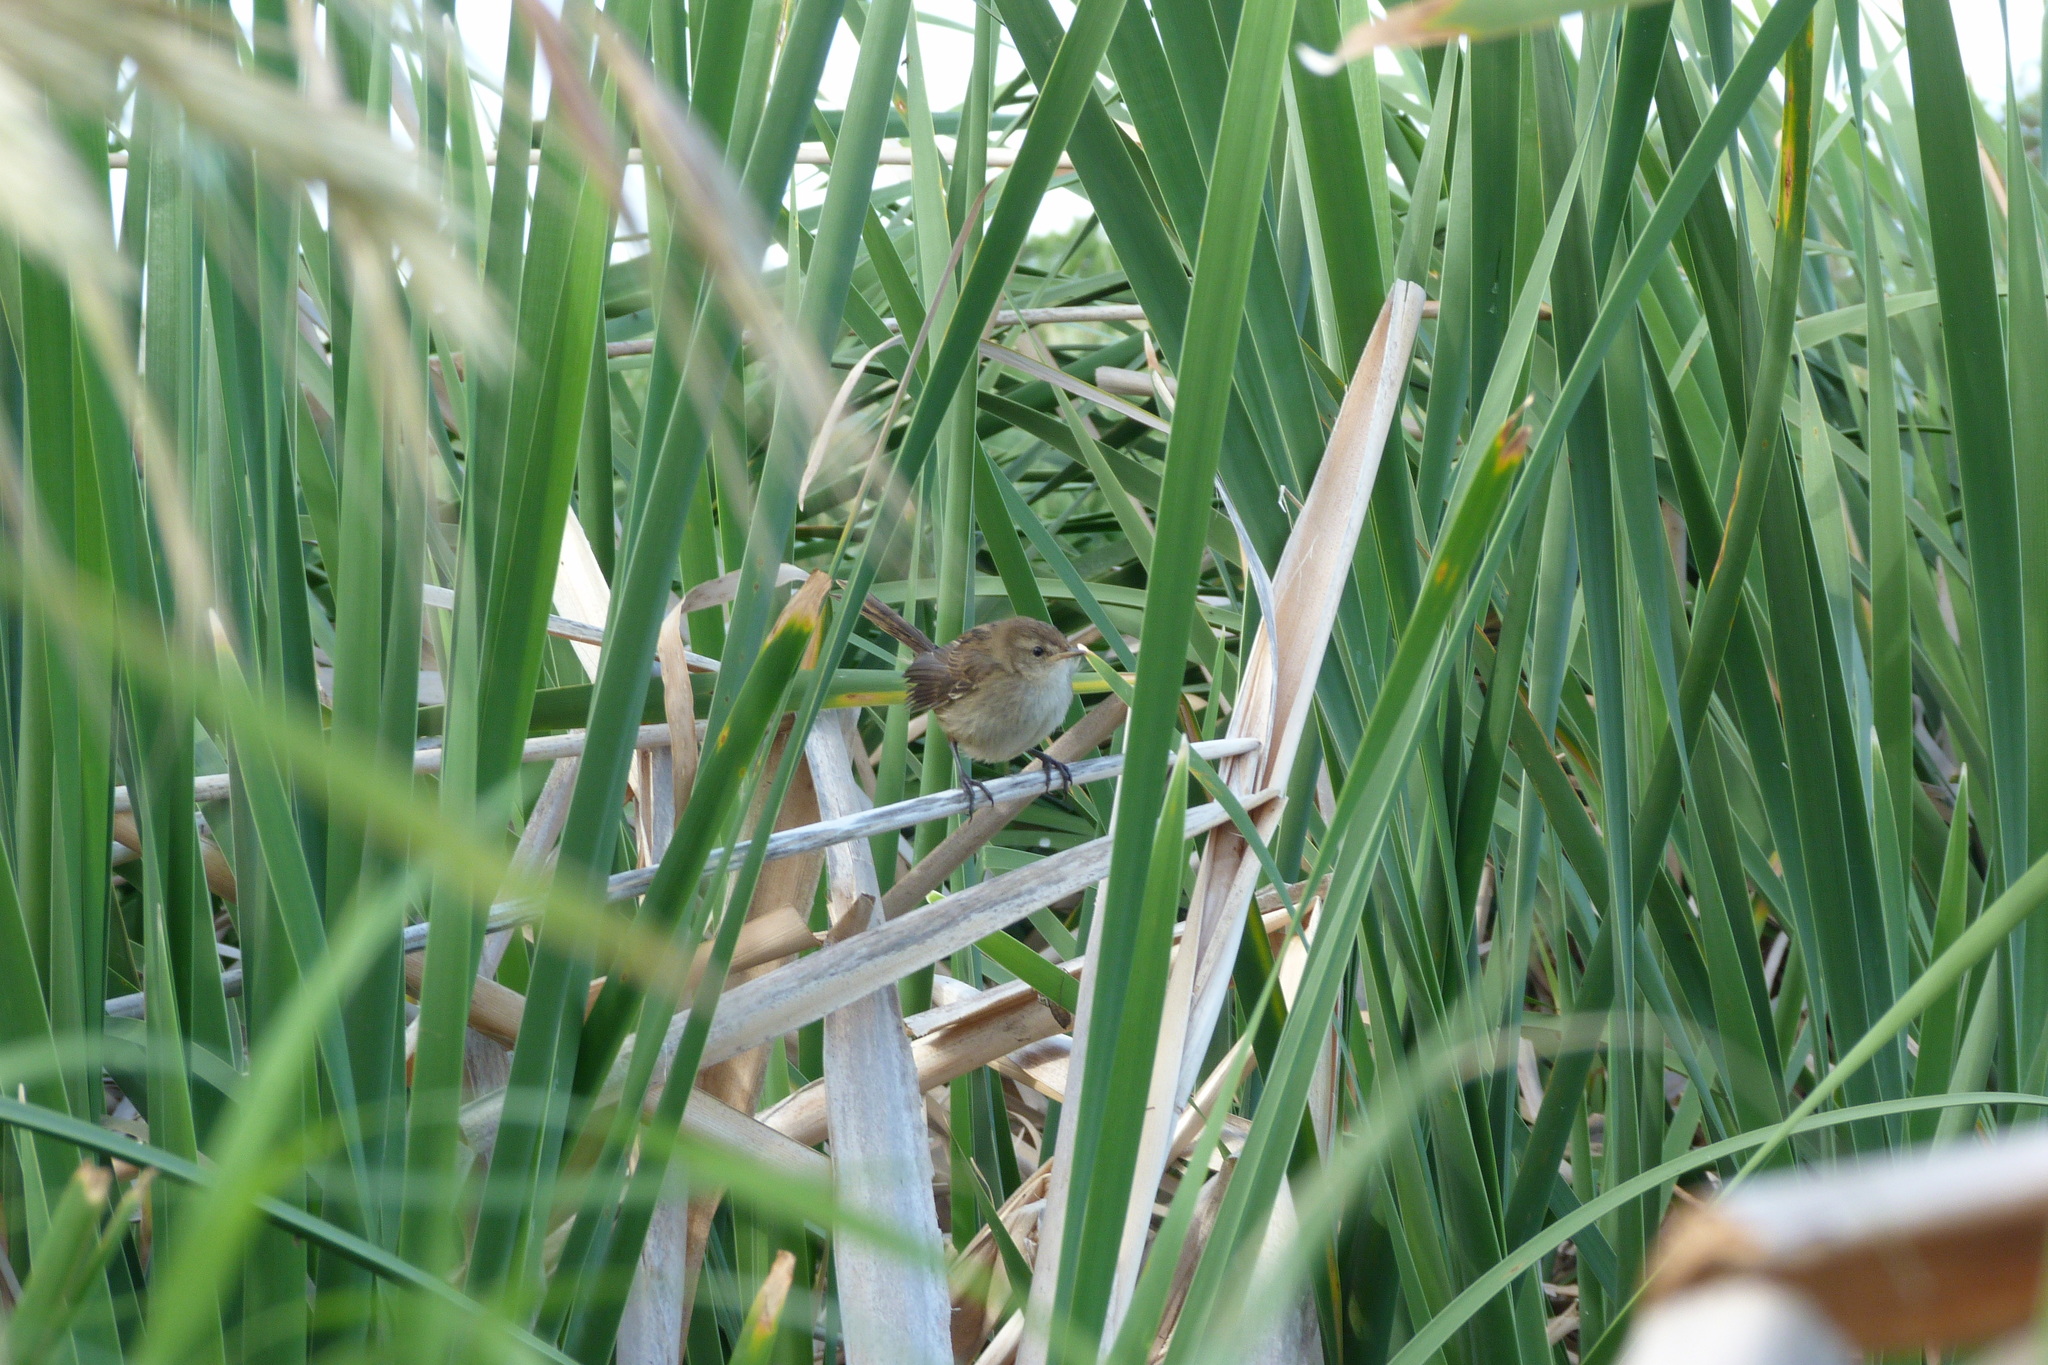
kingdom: Animalia
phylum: Chordata
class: Aves
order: Passeriformes
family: Locustellidae
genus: Megalurus
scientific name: Megalurus gramineus
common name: Little grassbird
